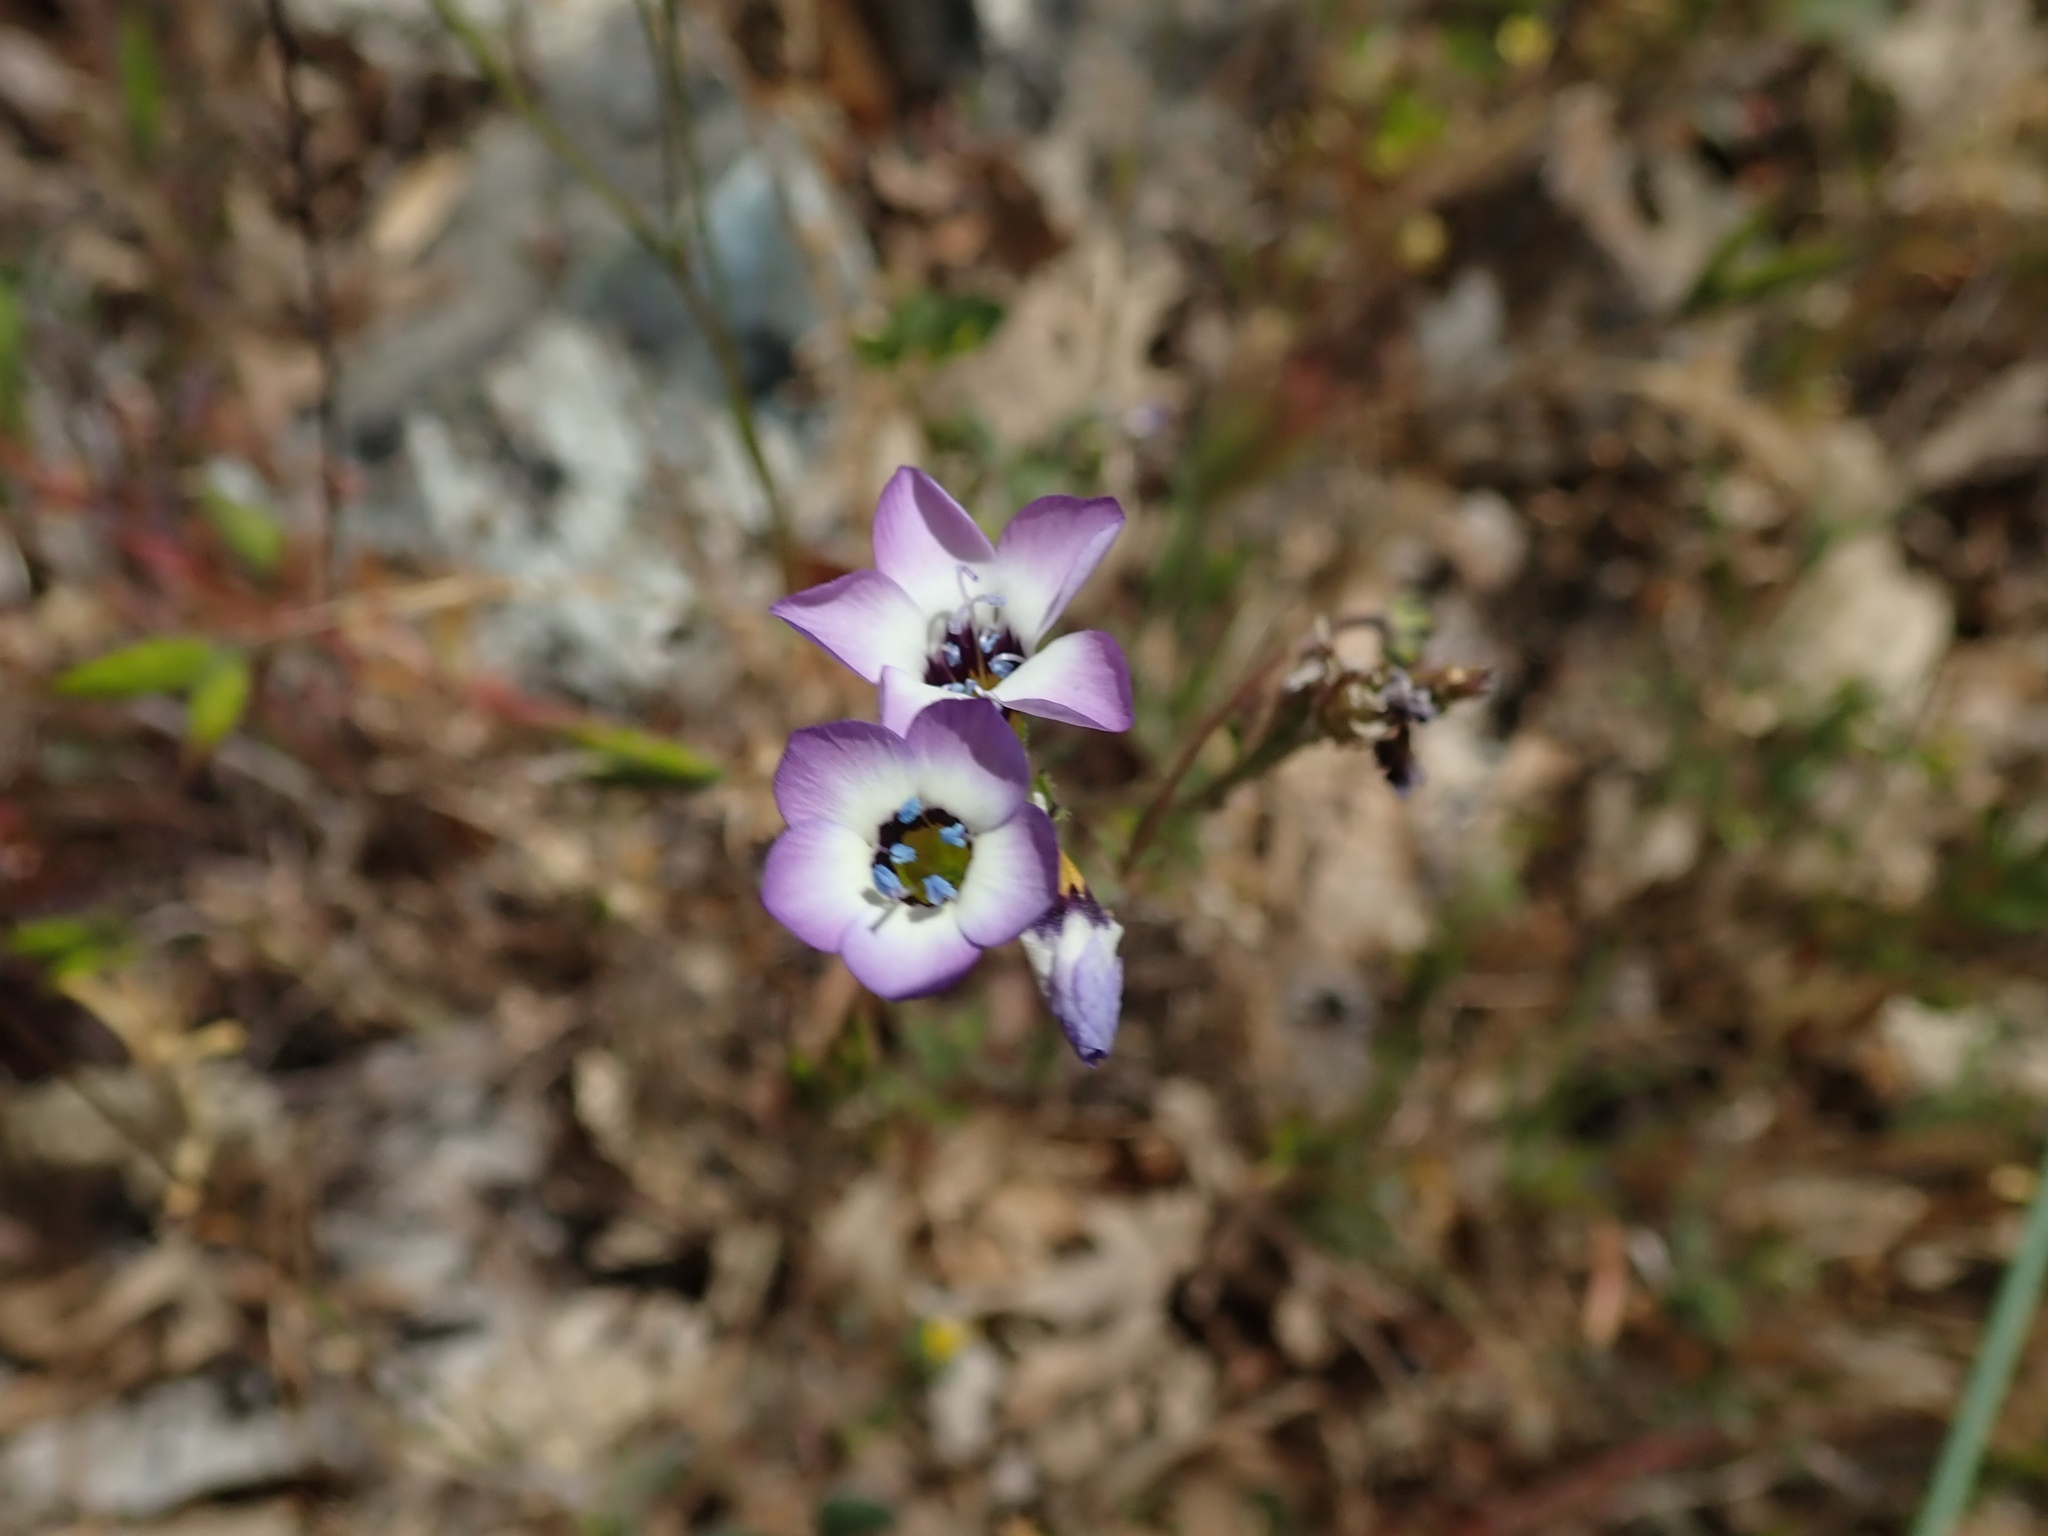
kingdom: Plantae
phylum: Tracheophyta
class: Magnoliopsida
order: Ericales
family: Polemoniaceae
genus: Gilia
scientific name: Gilia tricolor
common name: Bird's-eyes
